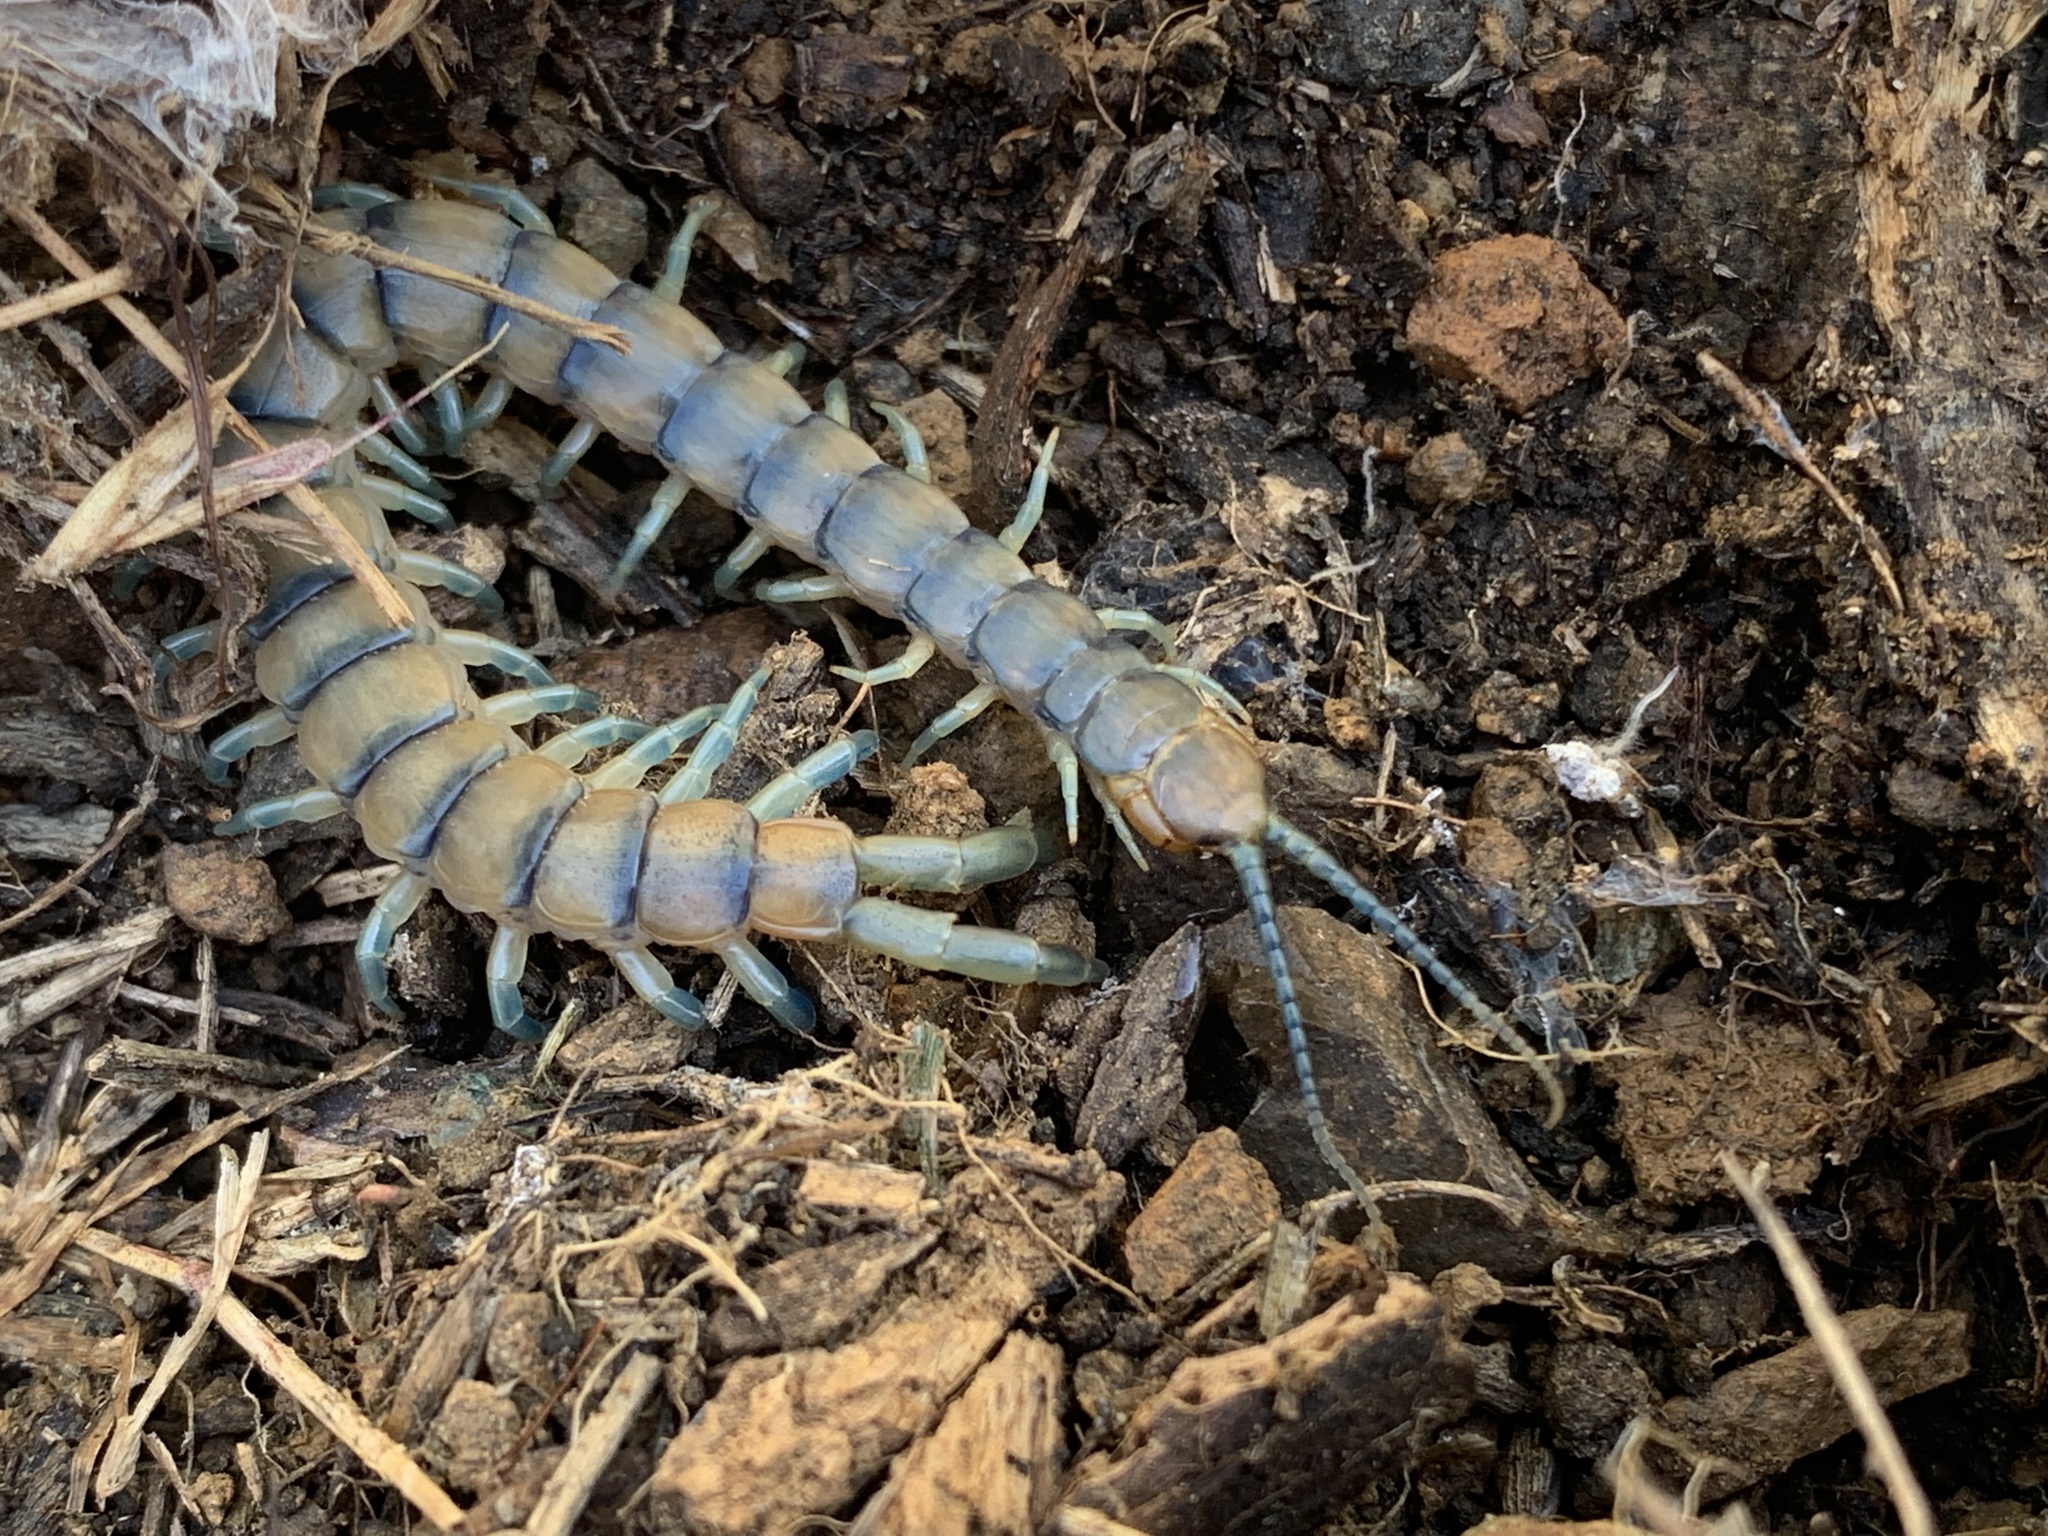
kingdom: Animalia
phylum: Arthropoda
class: Chilopoda
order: Scolopendromorpha
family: Scolopendridae
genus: Scolopendra
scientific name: Scolopendra polymorpha
